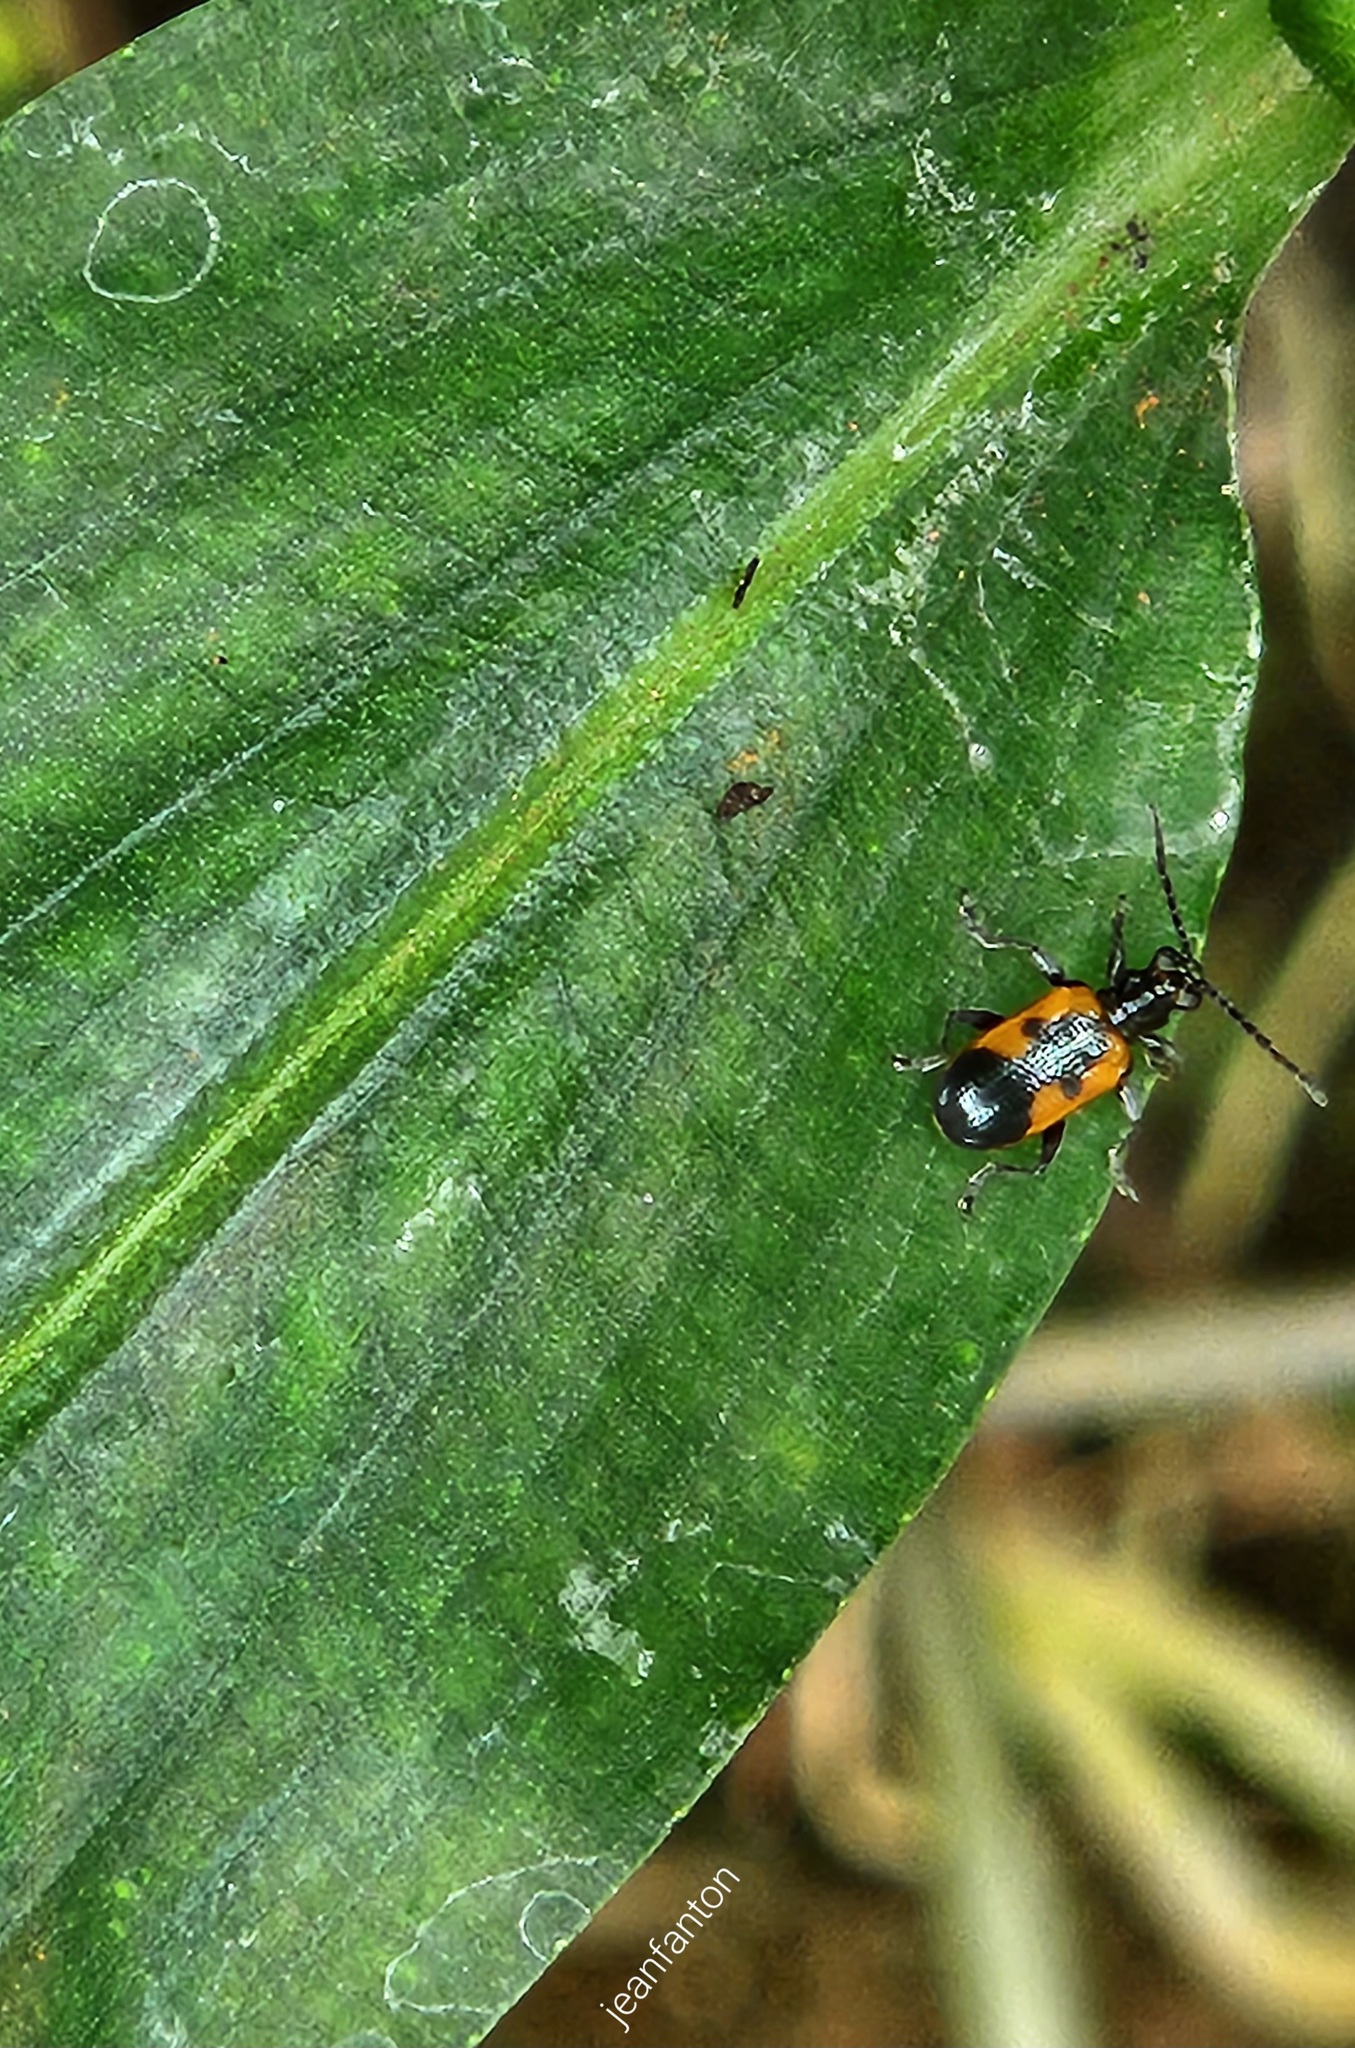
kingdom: Animalia
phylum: Arthropoda
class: Insecta
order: Coleoptera
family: Chrysomelidae
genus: Neolema
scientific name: Neolema dorsalis
